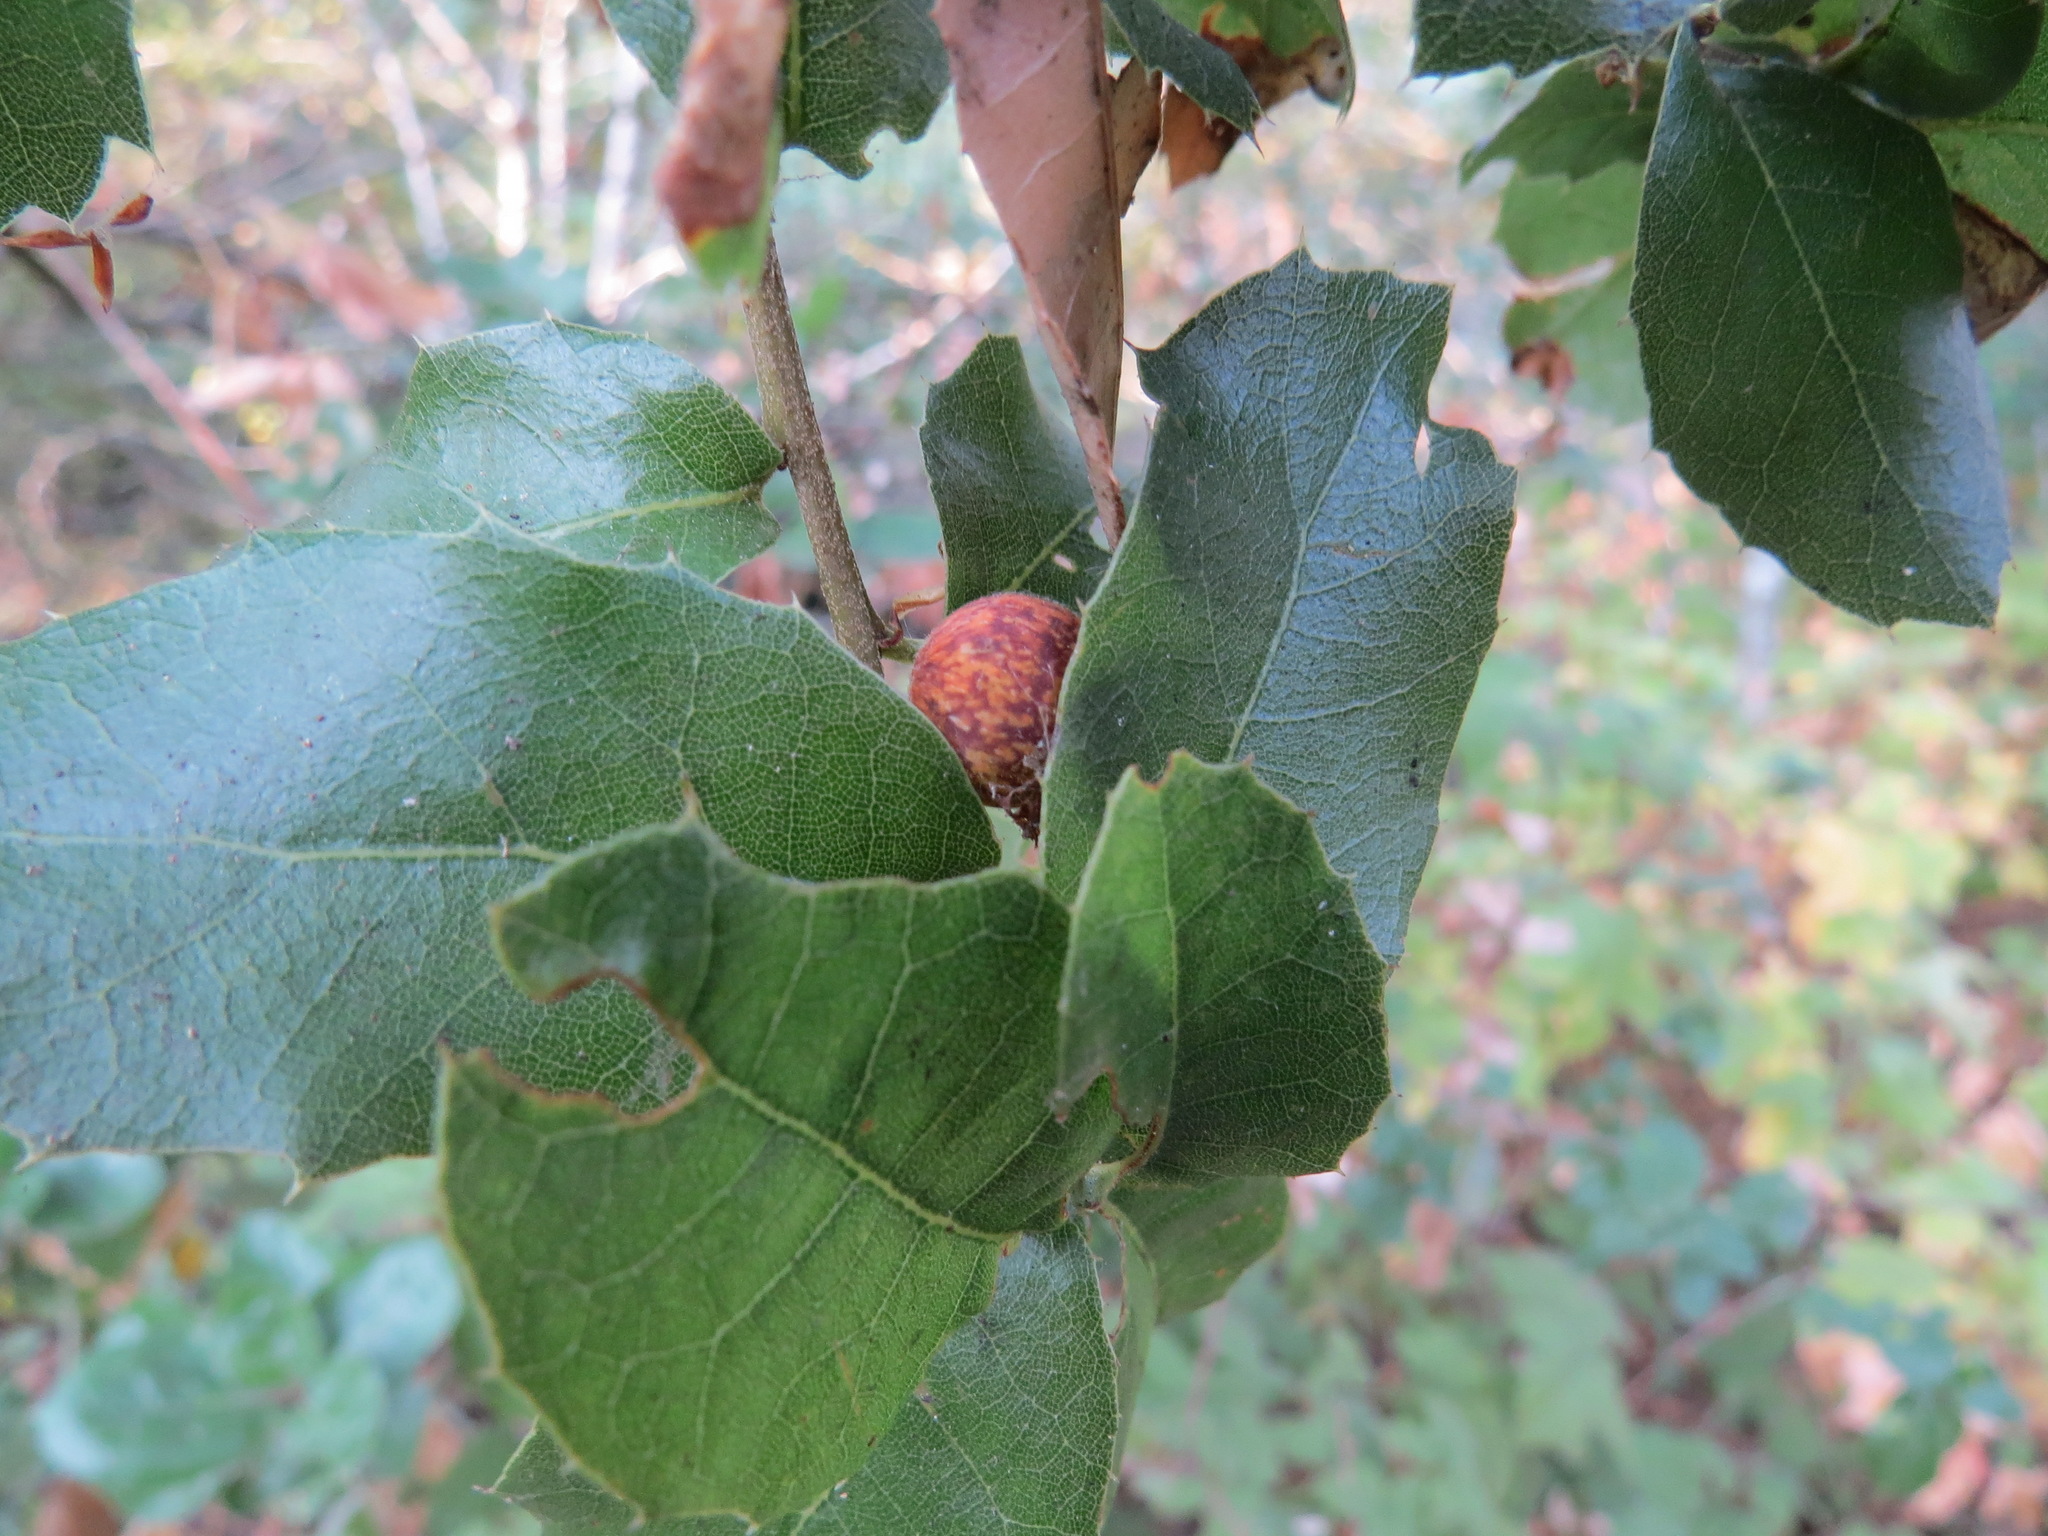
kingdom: Animalia
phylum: Arthropoda
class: Insecta
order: Hymenoptera
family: Cynipidae
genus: Callirhytis
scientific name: Callirhytis
